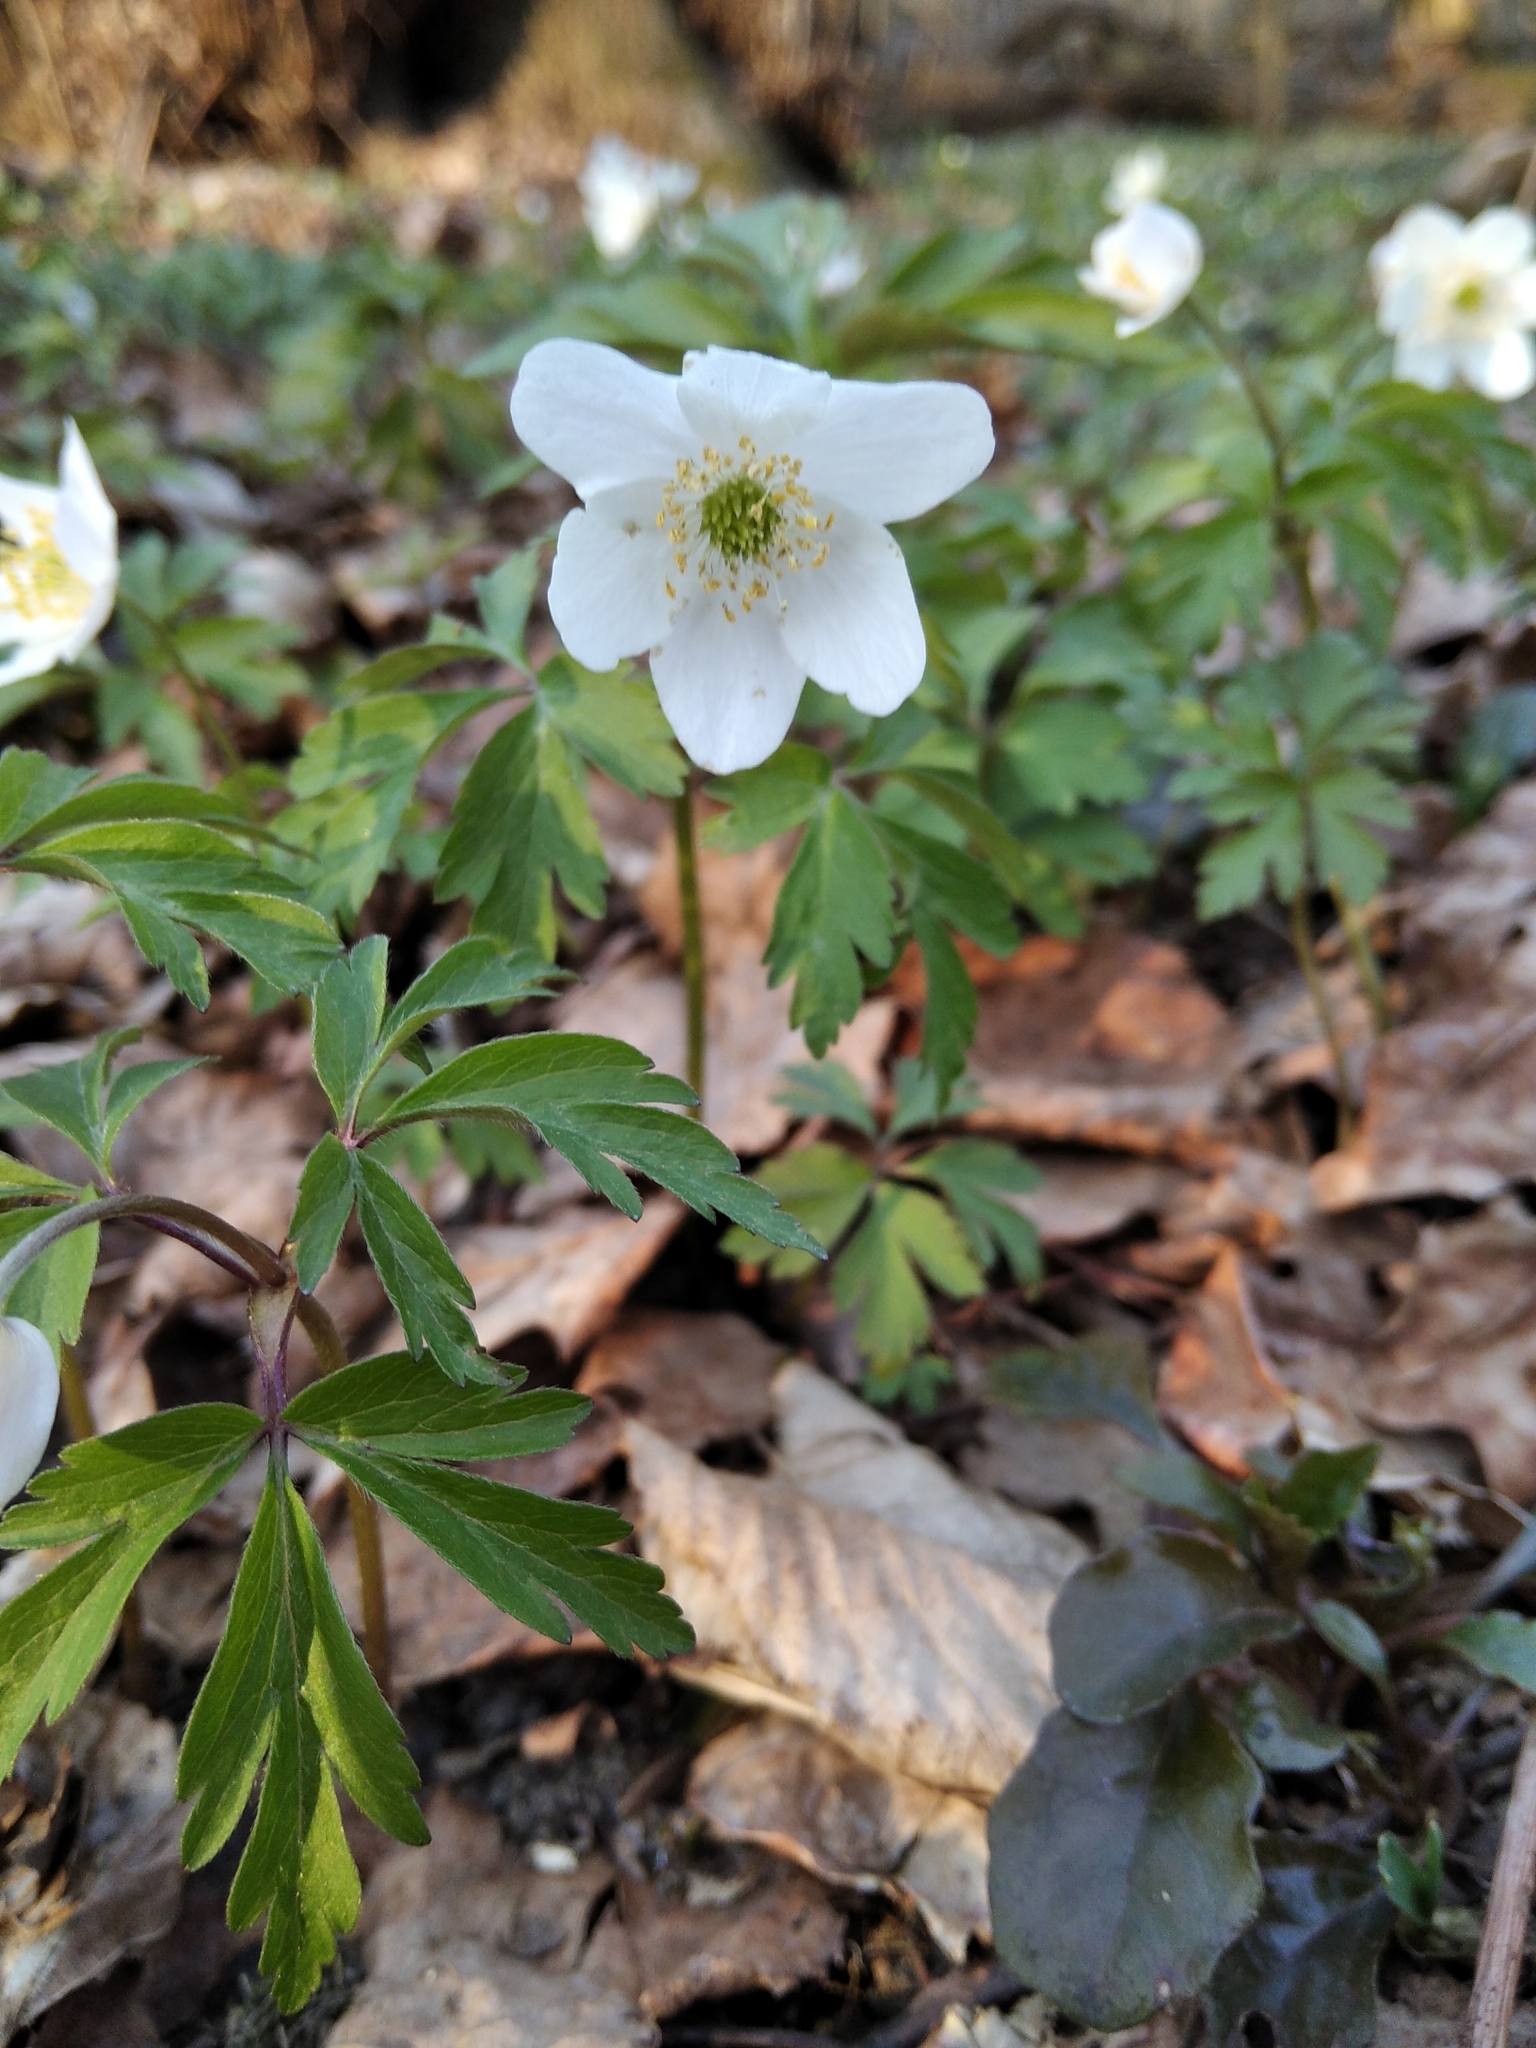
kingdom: Plantae
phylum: Tracheophyta
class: Magnoliopsida
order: Ranunculales
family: Ranunculaceae
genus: Anemone
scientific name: Anemone nemorosa
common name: Wood anemone
